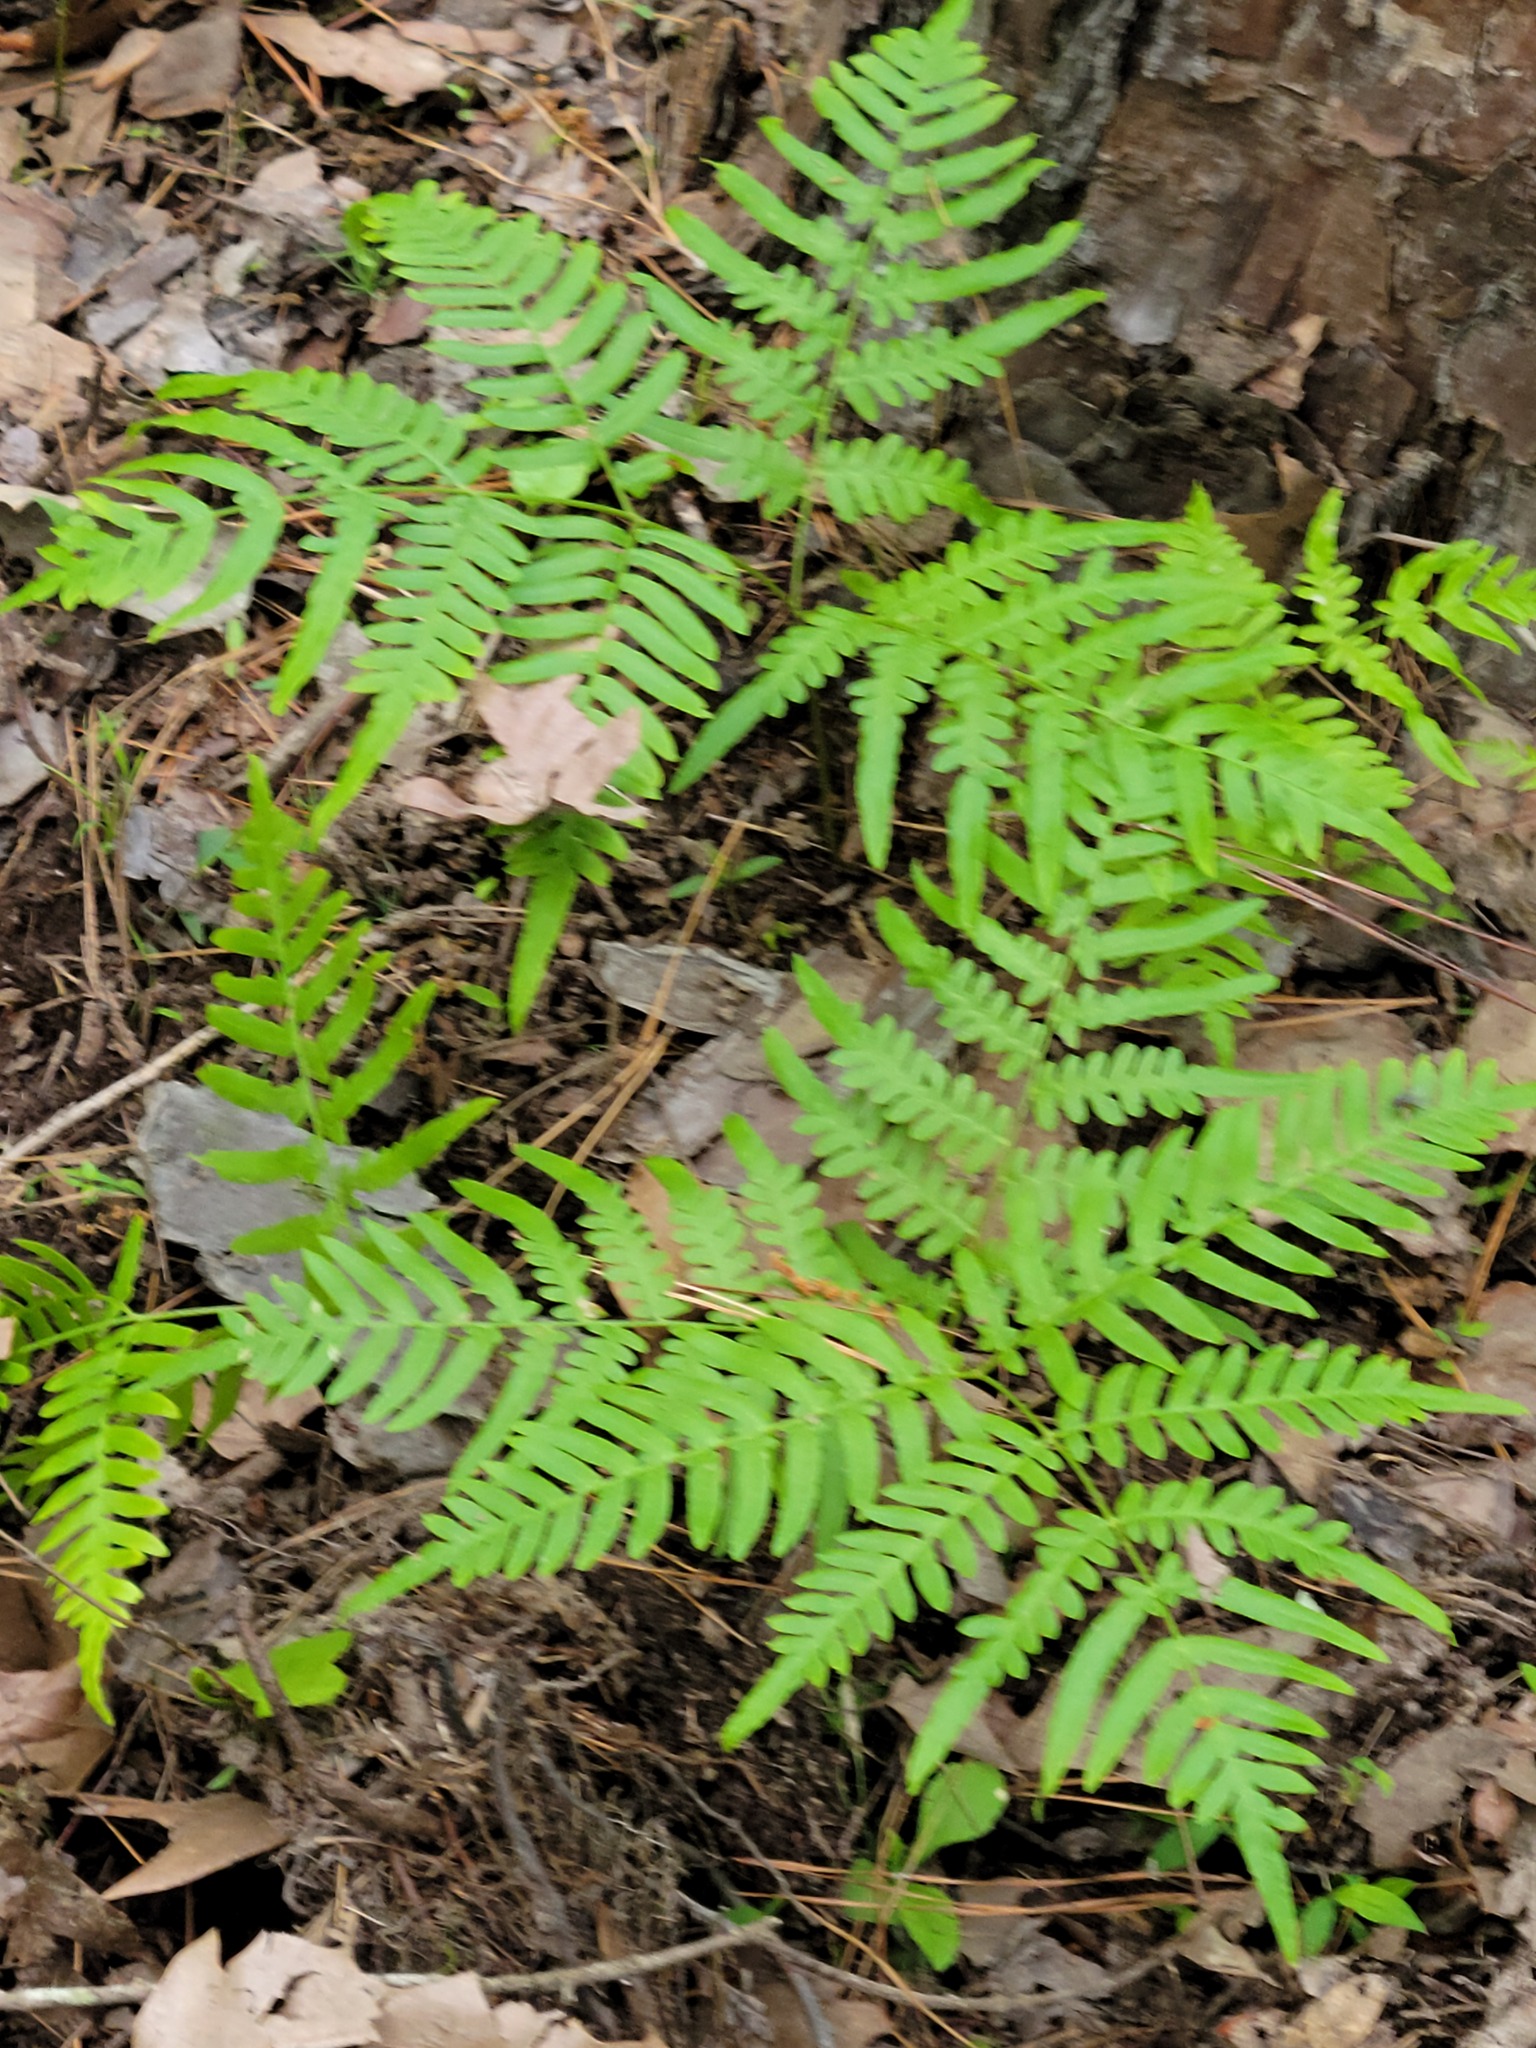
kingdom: Plantae
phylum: Tracheophyta
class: Polypodiopsida
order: Polypodiales
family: Dennstaedtiaceae
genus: Pteridium
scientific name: Pteridium
